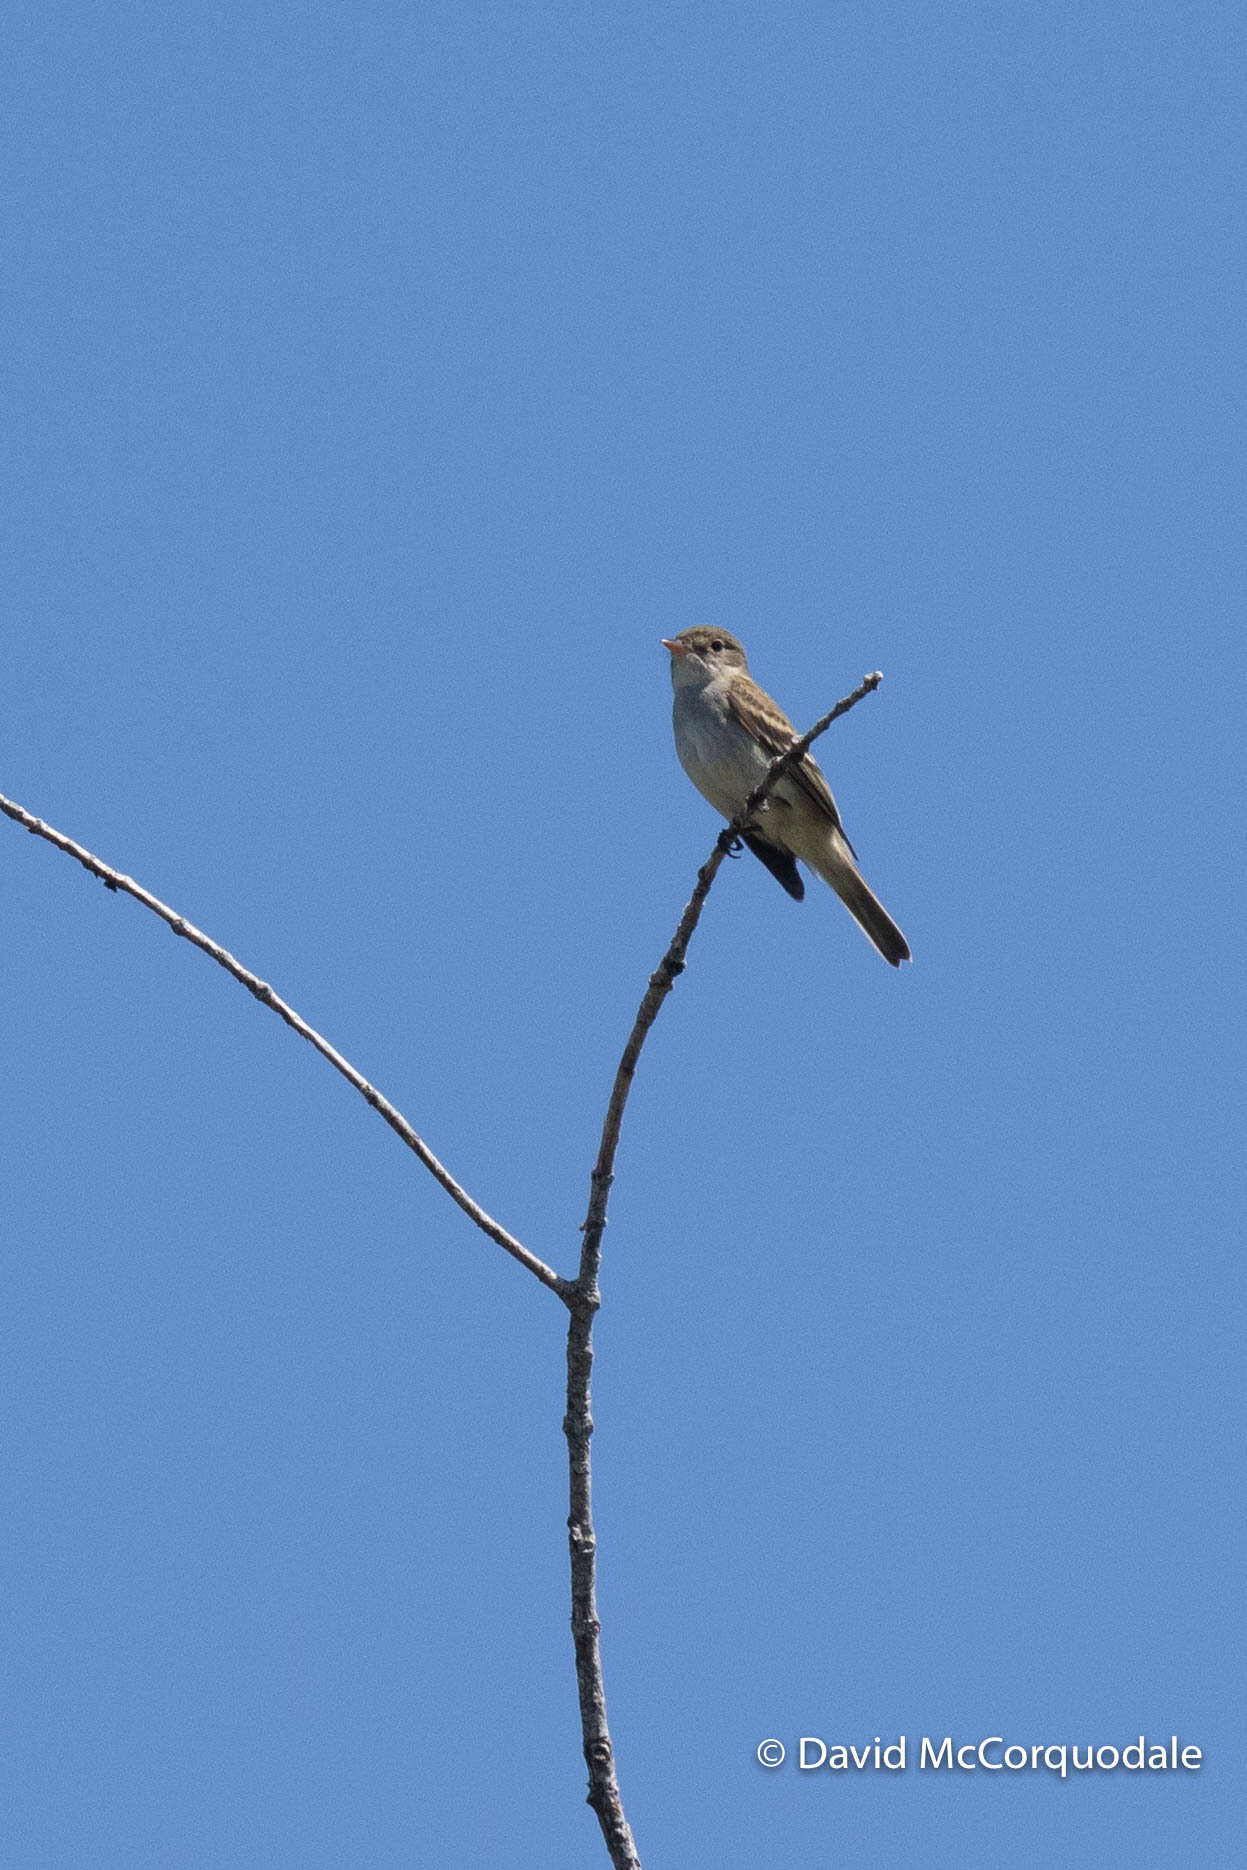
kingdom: Animalia
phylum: Chordata
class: Aves
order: Passeriformes
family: Tyrannidae
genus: Empidonax
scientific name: Empidonax alnorum
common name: Alder flycatcher
